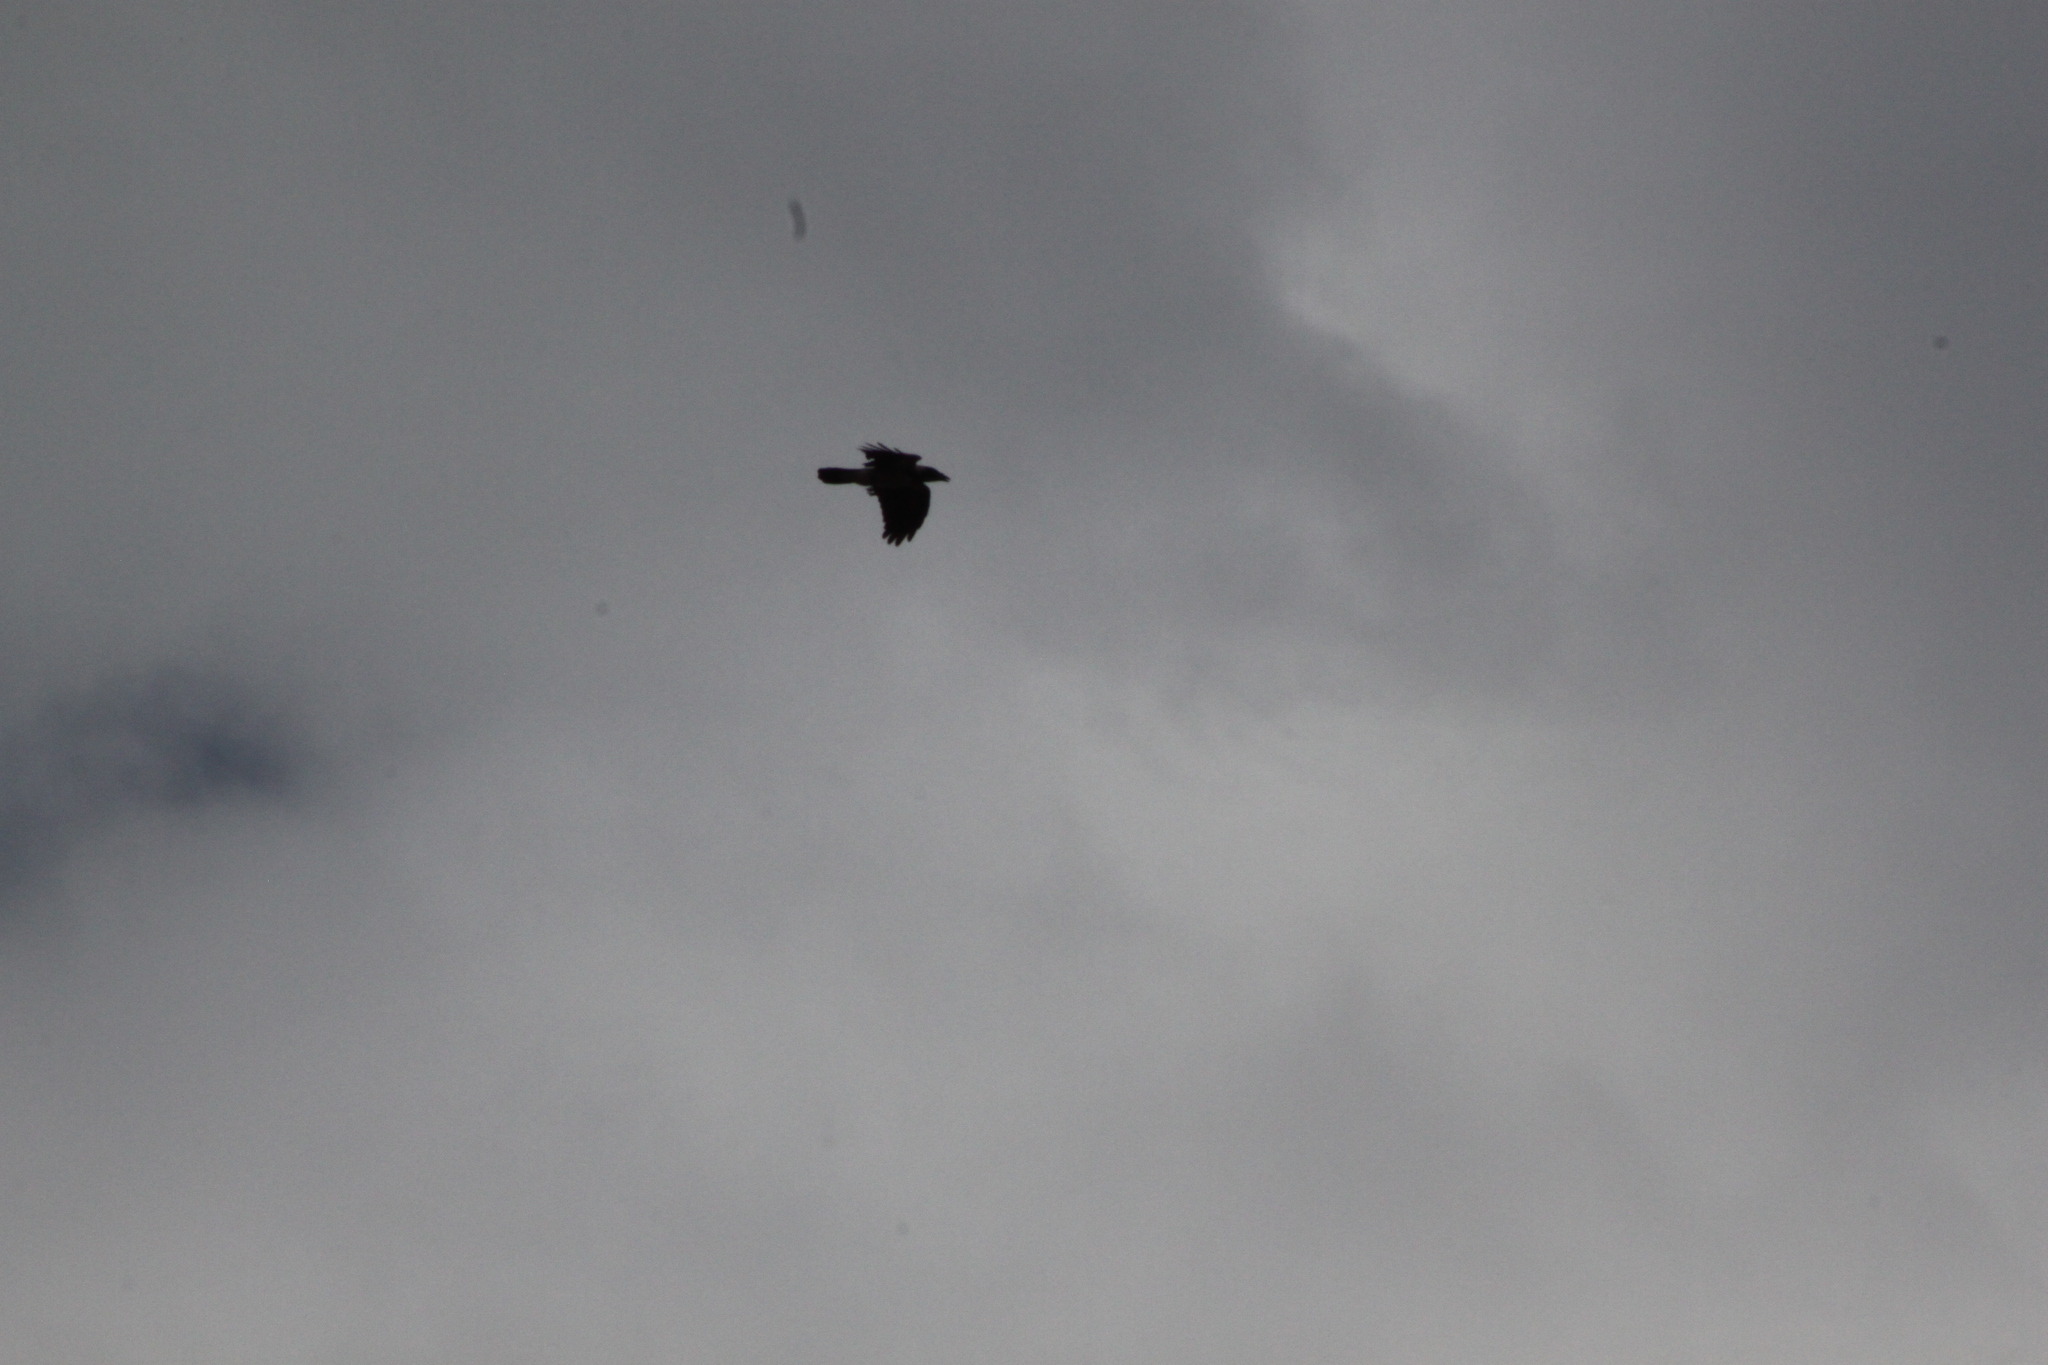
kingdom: Animalia
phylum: Chordata
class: Aves
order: Passeriformes
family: Corvidae
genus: Corvus
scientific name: Corvus corax
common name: Common raven
